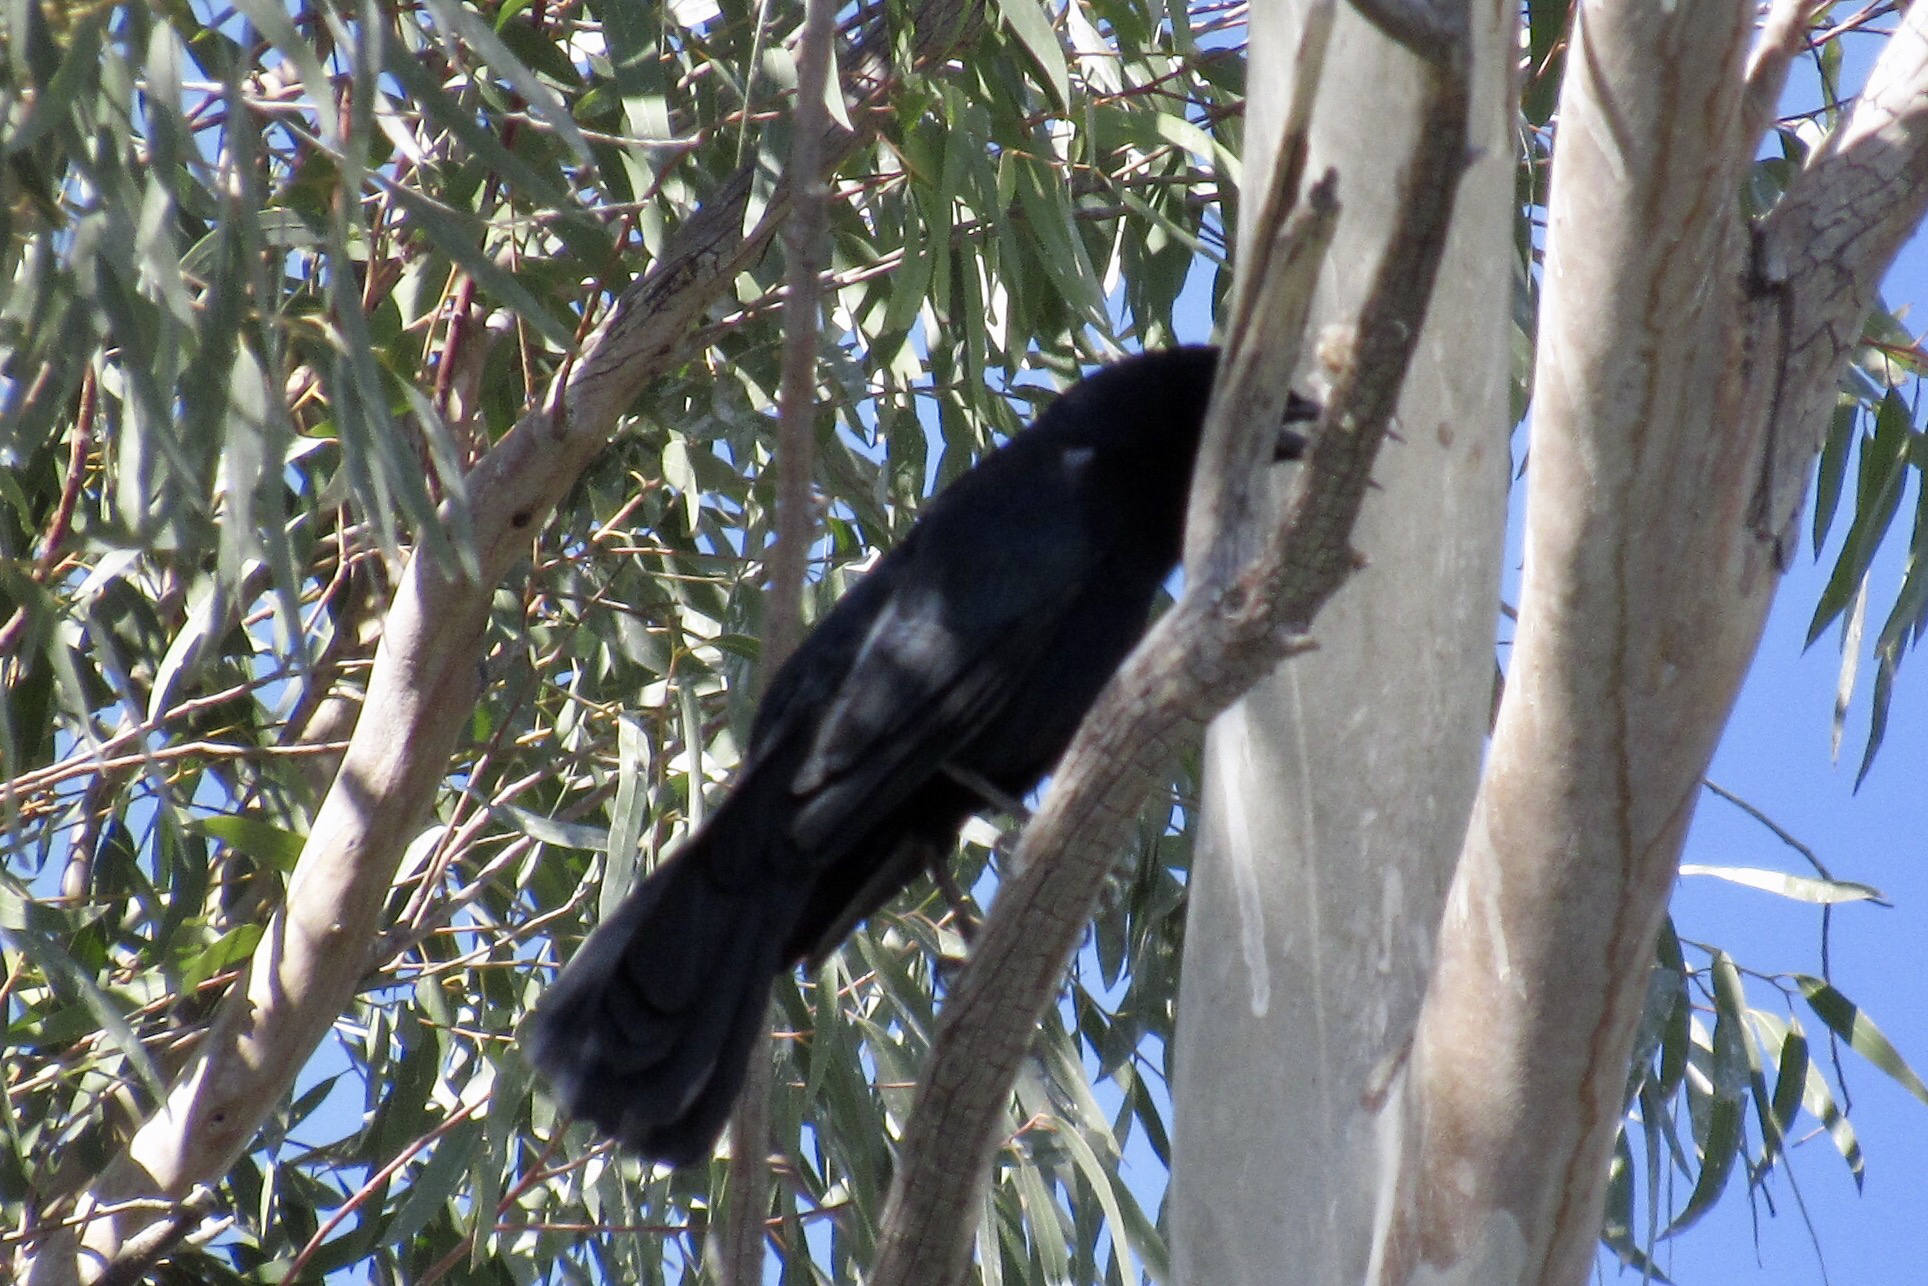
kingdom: Animalia
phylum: Chordata
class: Aves
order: Passeriformes
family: Icteridae
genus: Quiscalus
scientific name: Quiscalus mexicanus
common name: Great-tailed grackle
